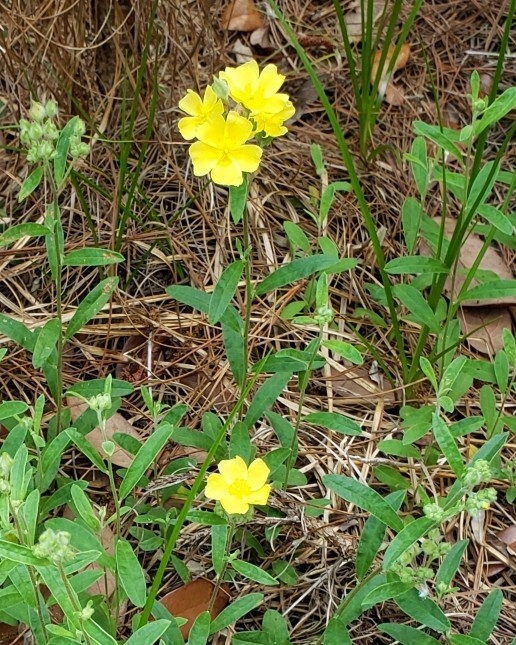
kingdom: Plantae
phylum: Tracheophyta
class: Magnoliopsida
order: Malvales
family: Cistaceae
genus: Crocanthemum
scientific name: Crocanthemum corymbosum
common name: Pinebarren sun-rose
